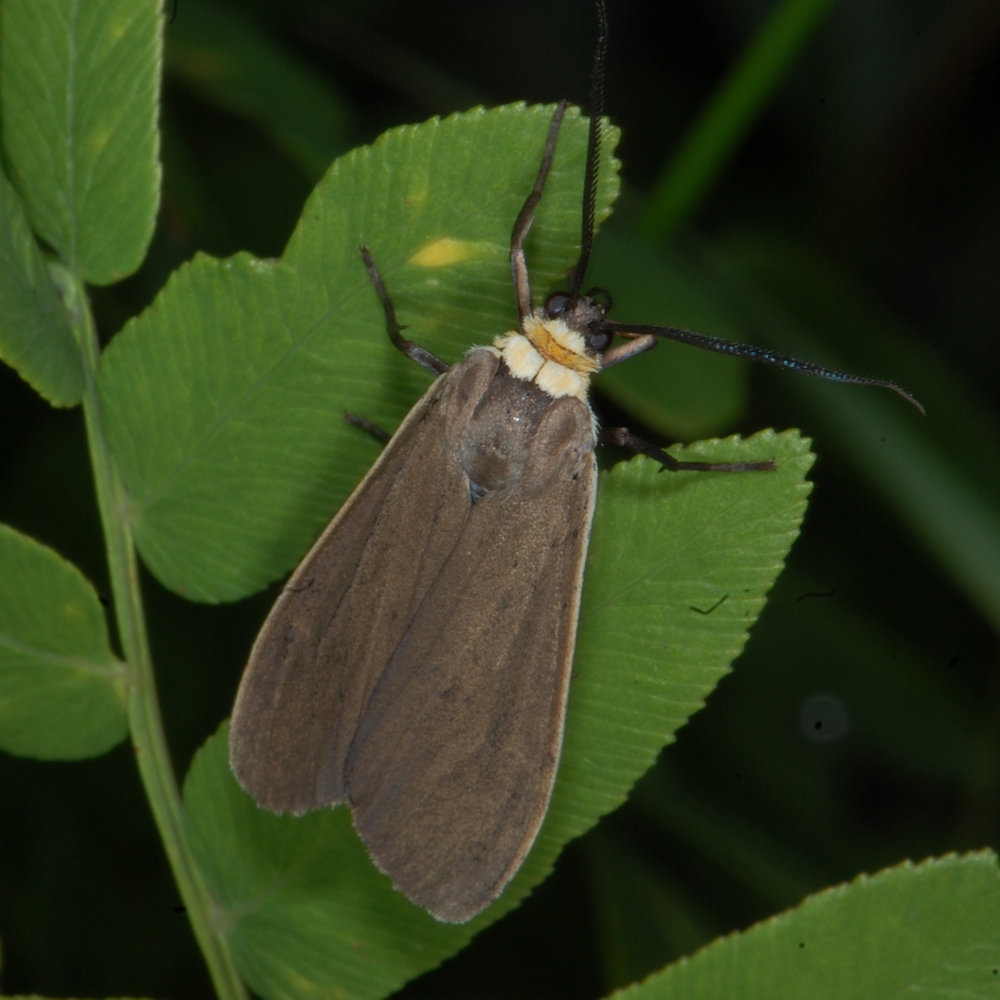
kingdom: Animalia
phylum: Arthropoda
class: Insecta
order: Lepidoptera
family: Erebidae
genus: Cisseps
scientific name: Cisseps fulvicollis
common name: Yellow-collared scape moth
